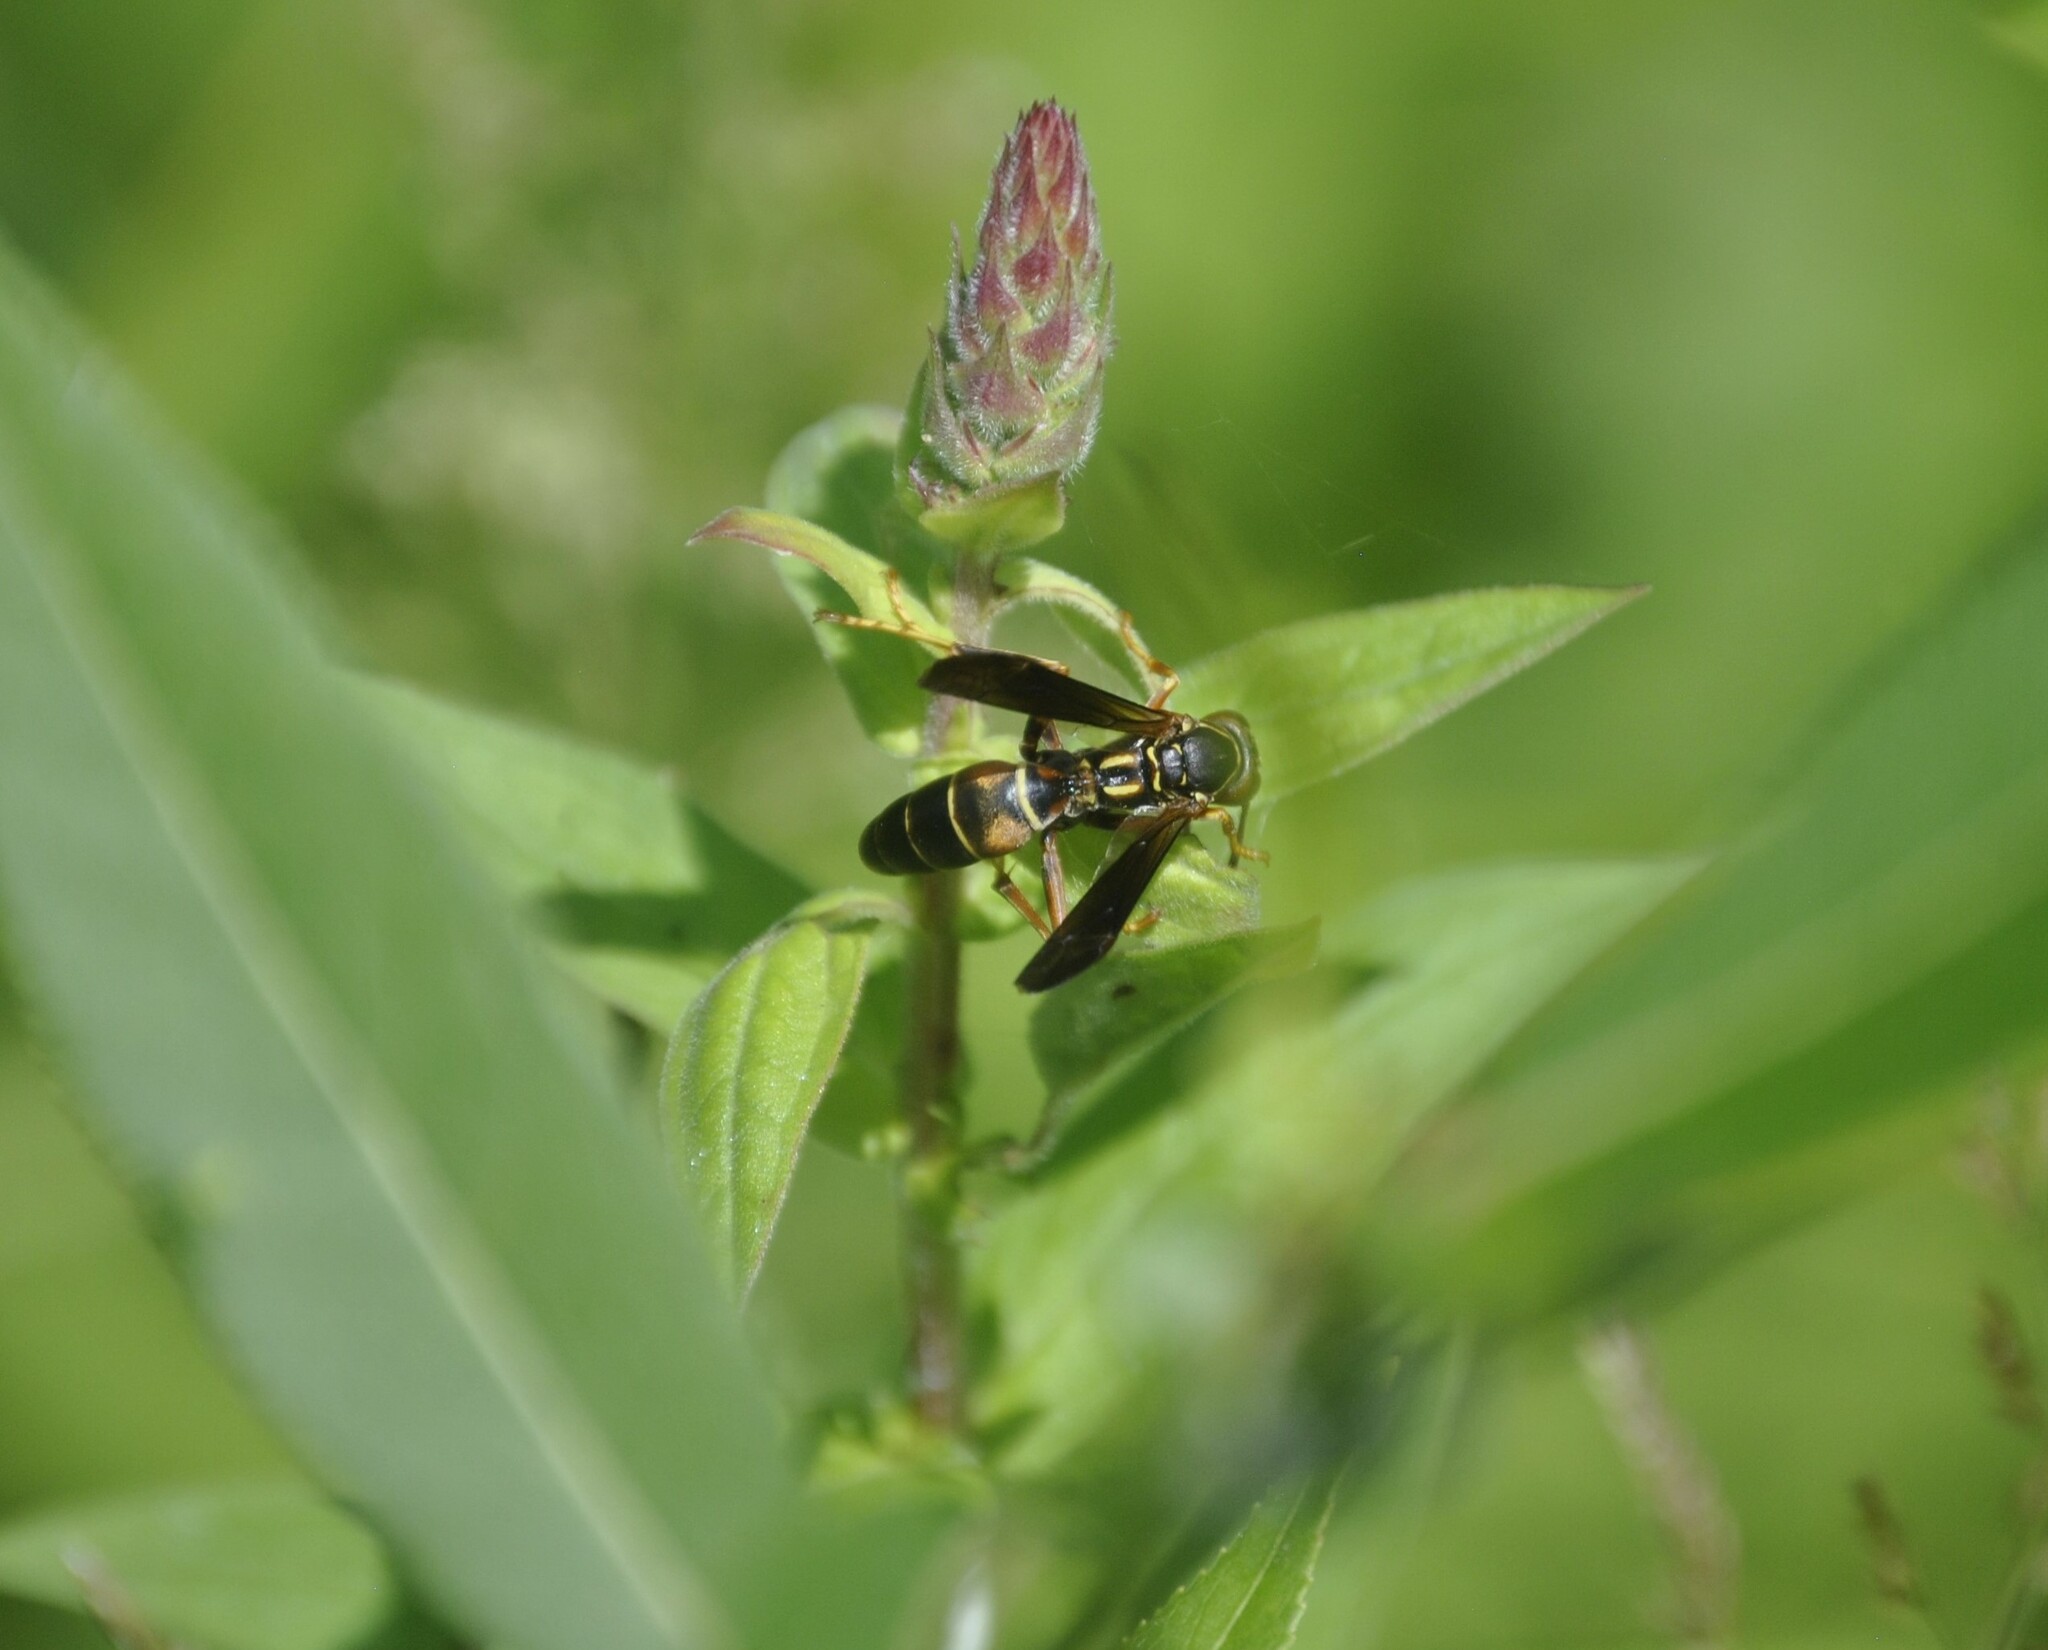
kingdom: Animalia
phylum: Arthropoda
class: Insecta
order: Hymenoptera
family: Eumenidae
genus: Polistes
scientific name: Polistes fuscatus
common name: Dark paper wasp
